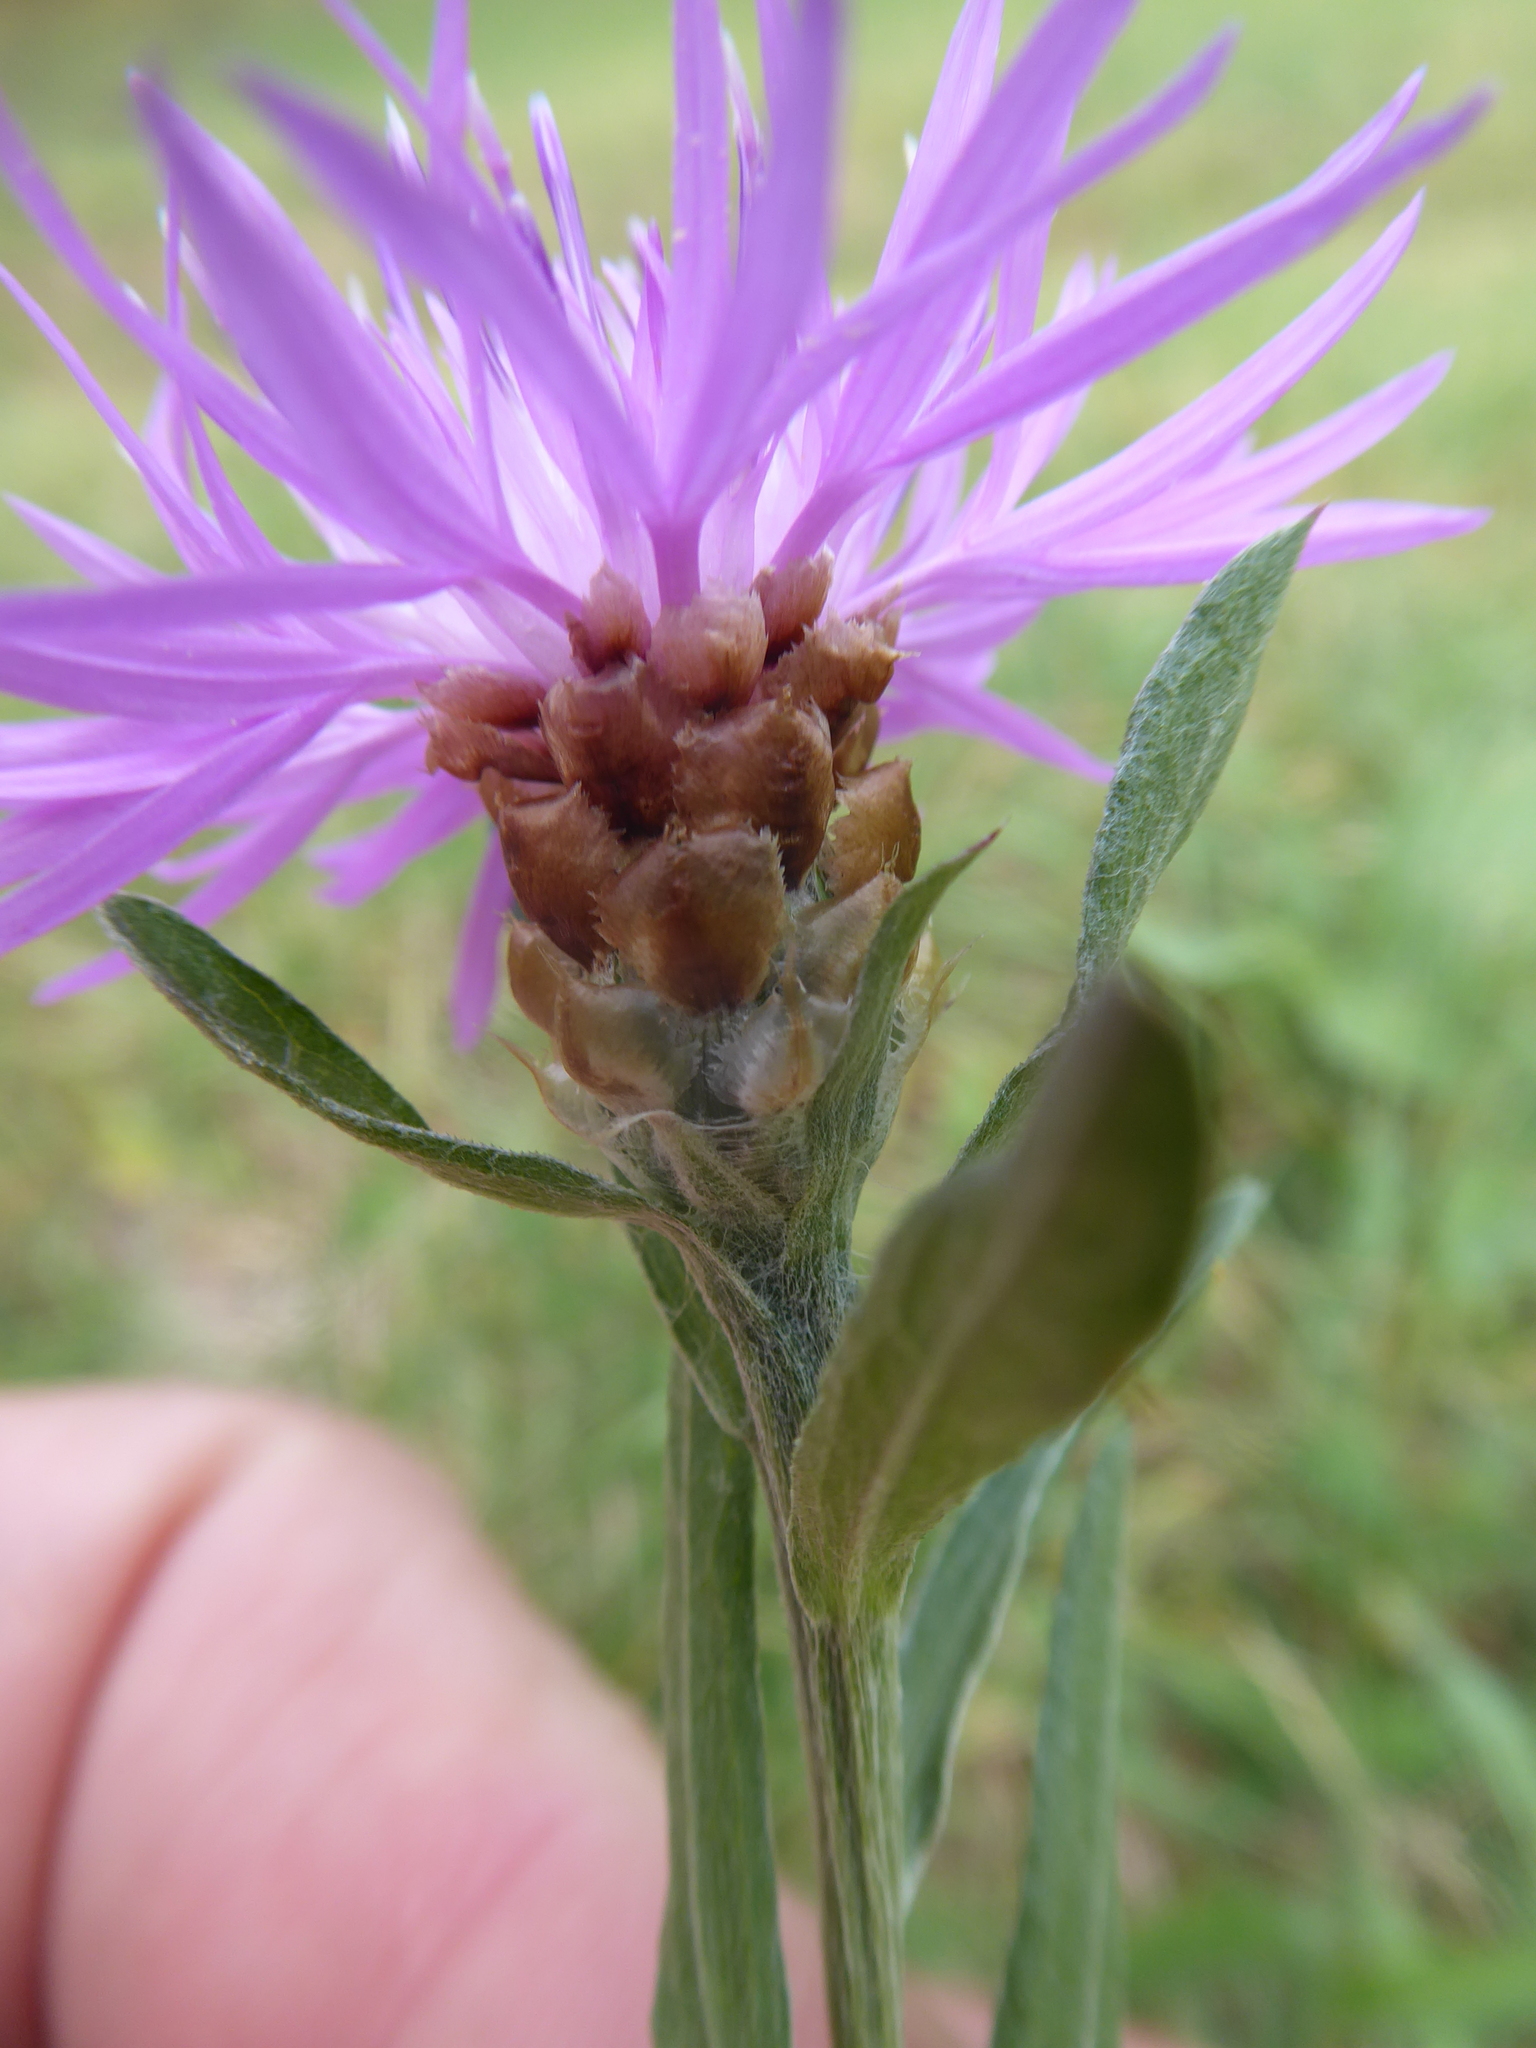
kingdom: Plantae
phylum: Tracheophyta
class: Magnoliopsida
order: Asterales
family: Asteraceae
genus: Centaurea
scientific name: Centaurea jacea
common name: Brown knapweed
